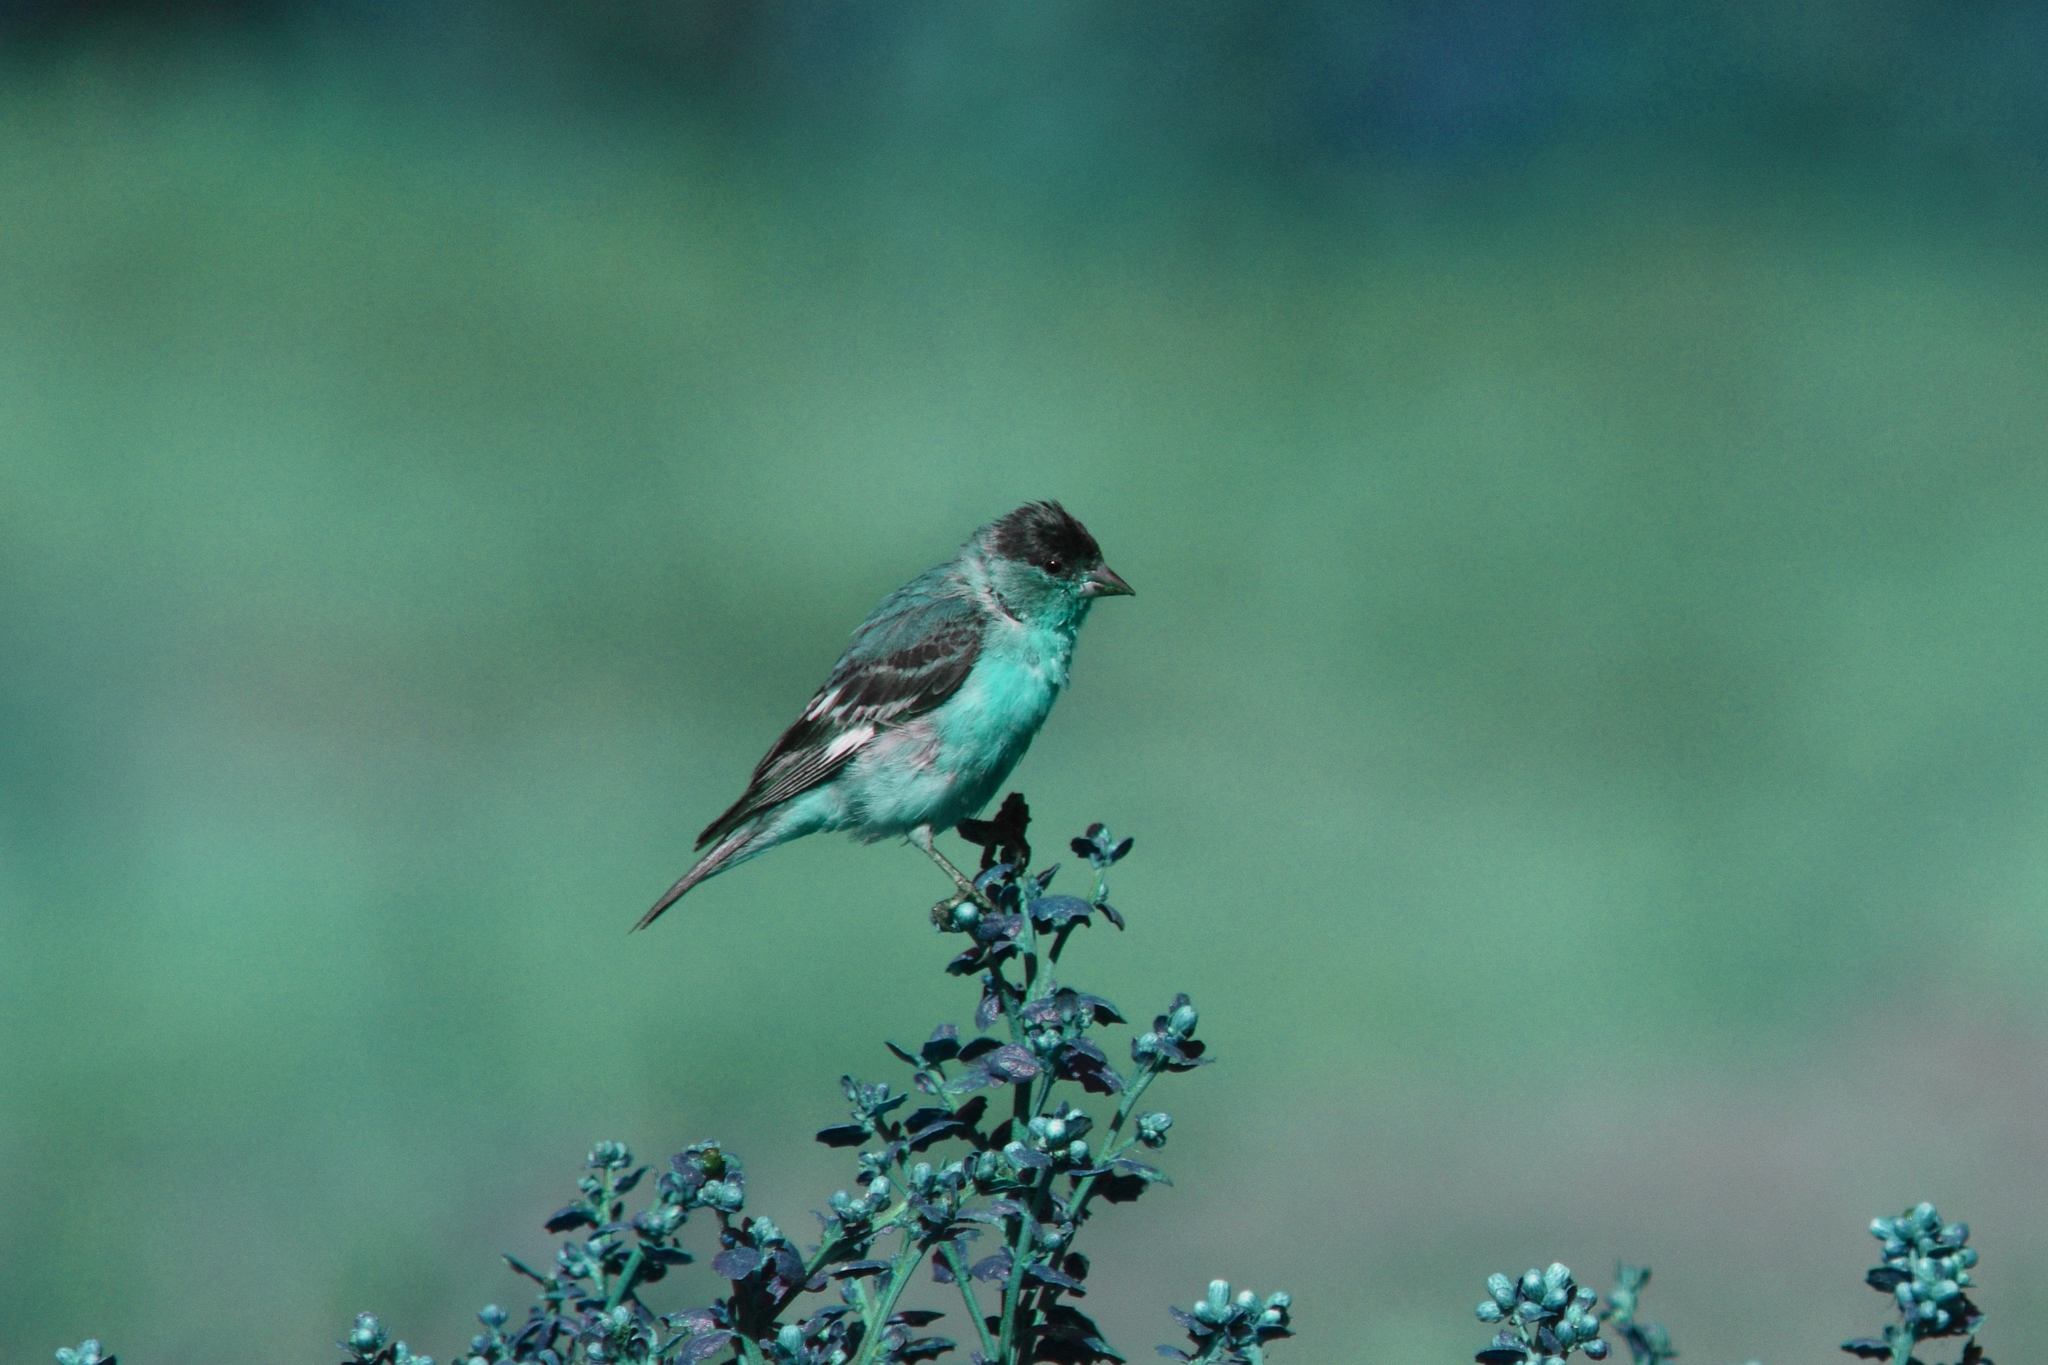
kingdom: Animalia
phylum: Chordata
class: Aves
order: Passeriformes
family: Fringillidae
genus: Spinus
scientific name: Spinus psaltria
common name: Lesser goldfinch
